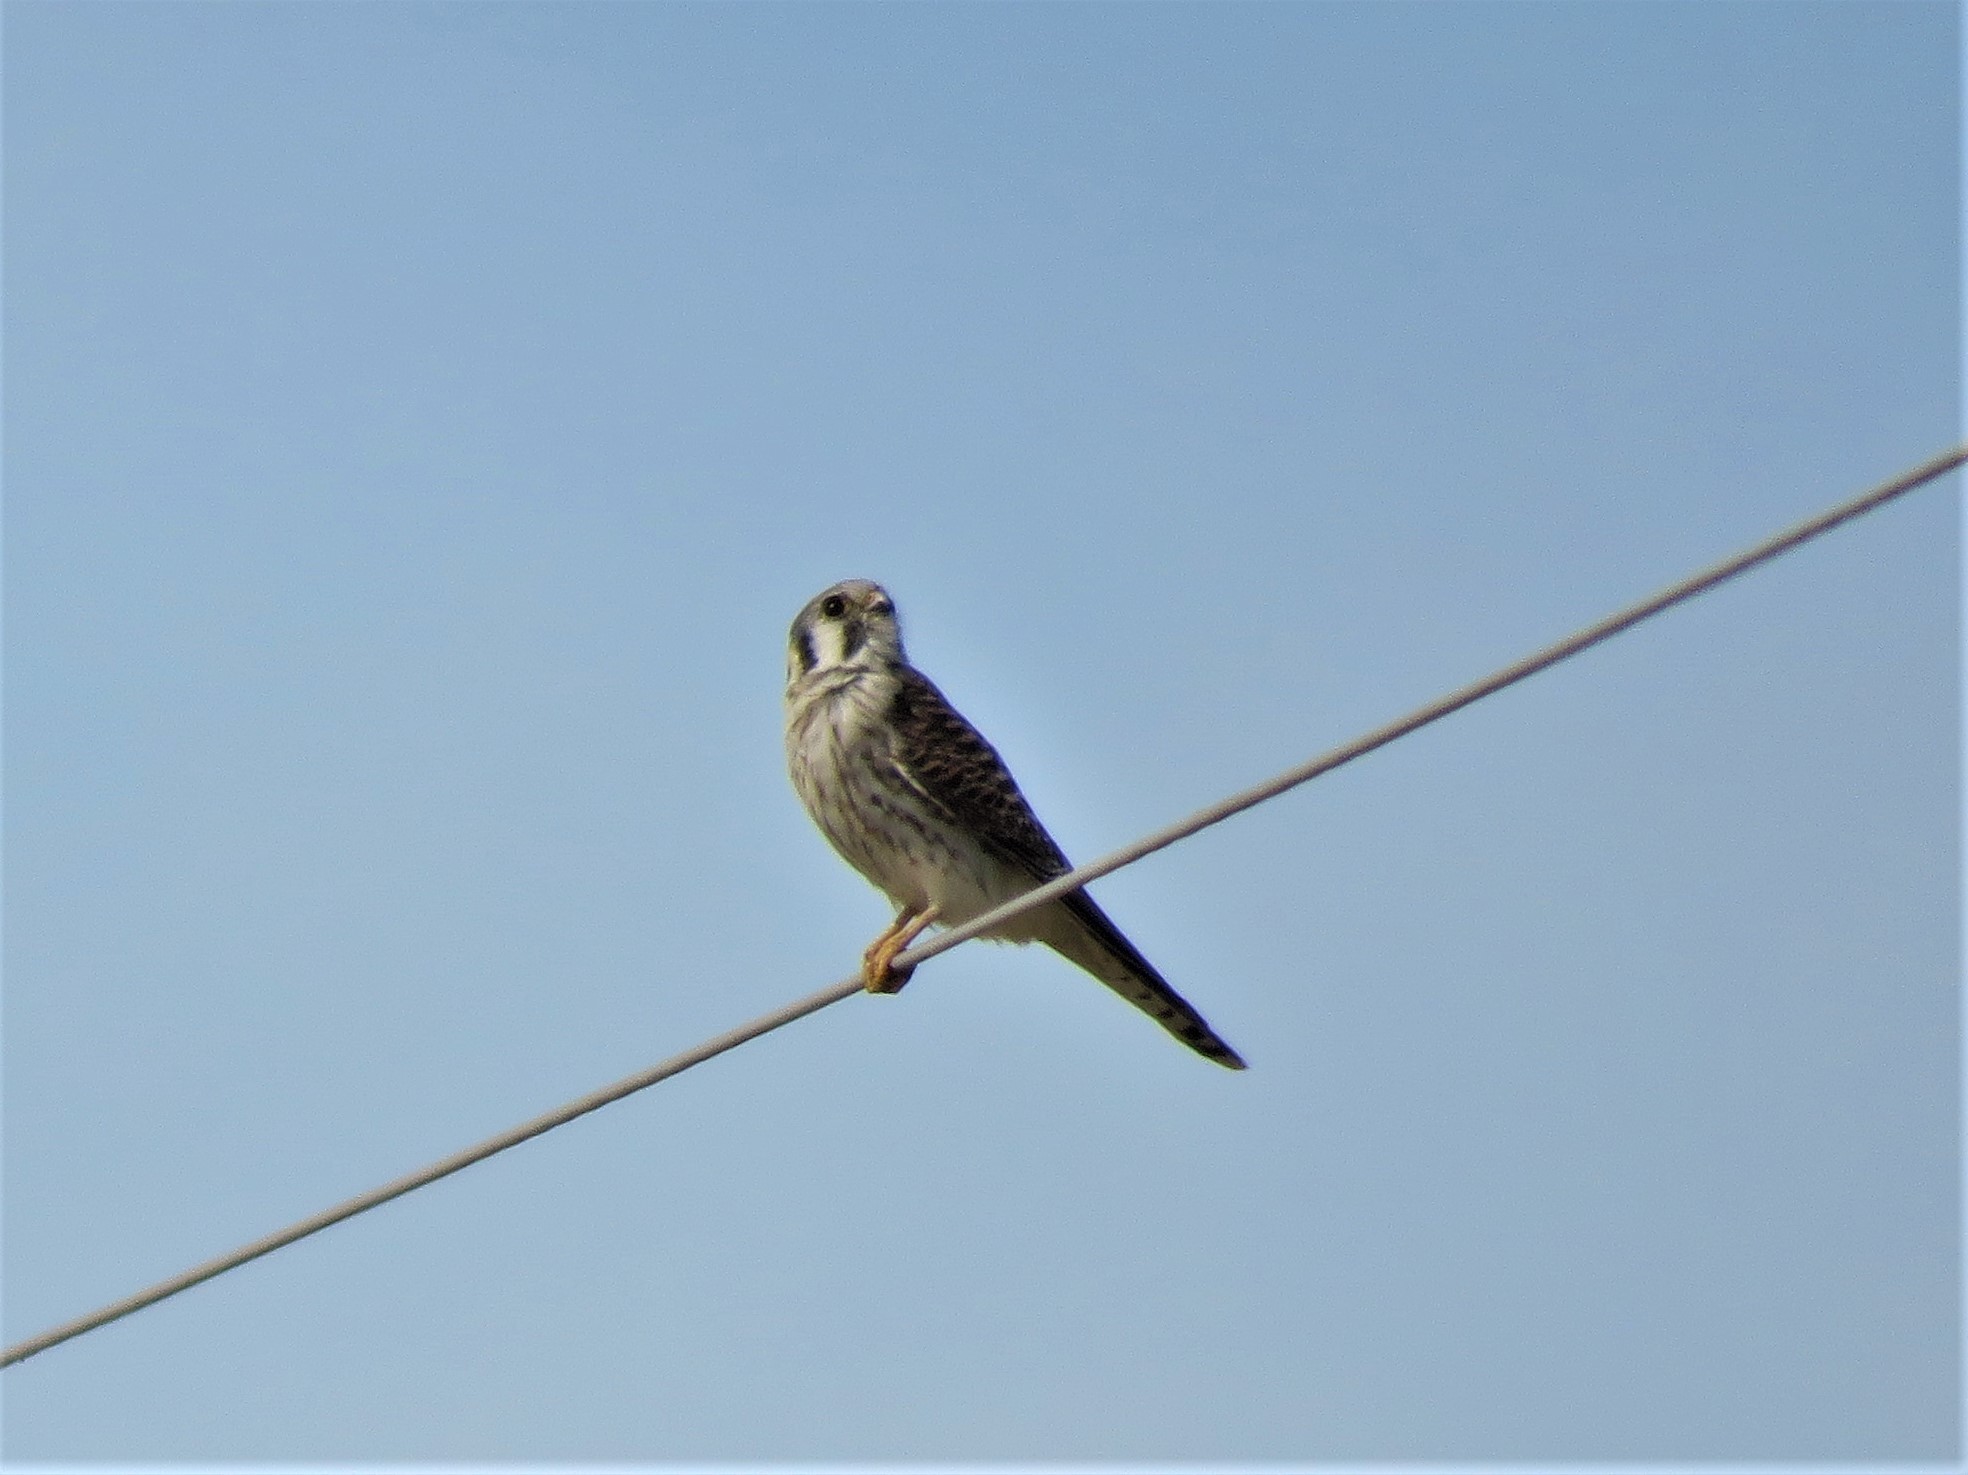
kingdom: Animalia
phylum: Chordata
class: Aves
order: Falconiformes
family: Falconidae
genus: Falco
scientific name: Falco sparverius
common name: American kestrel
